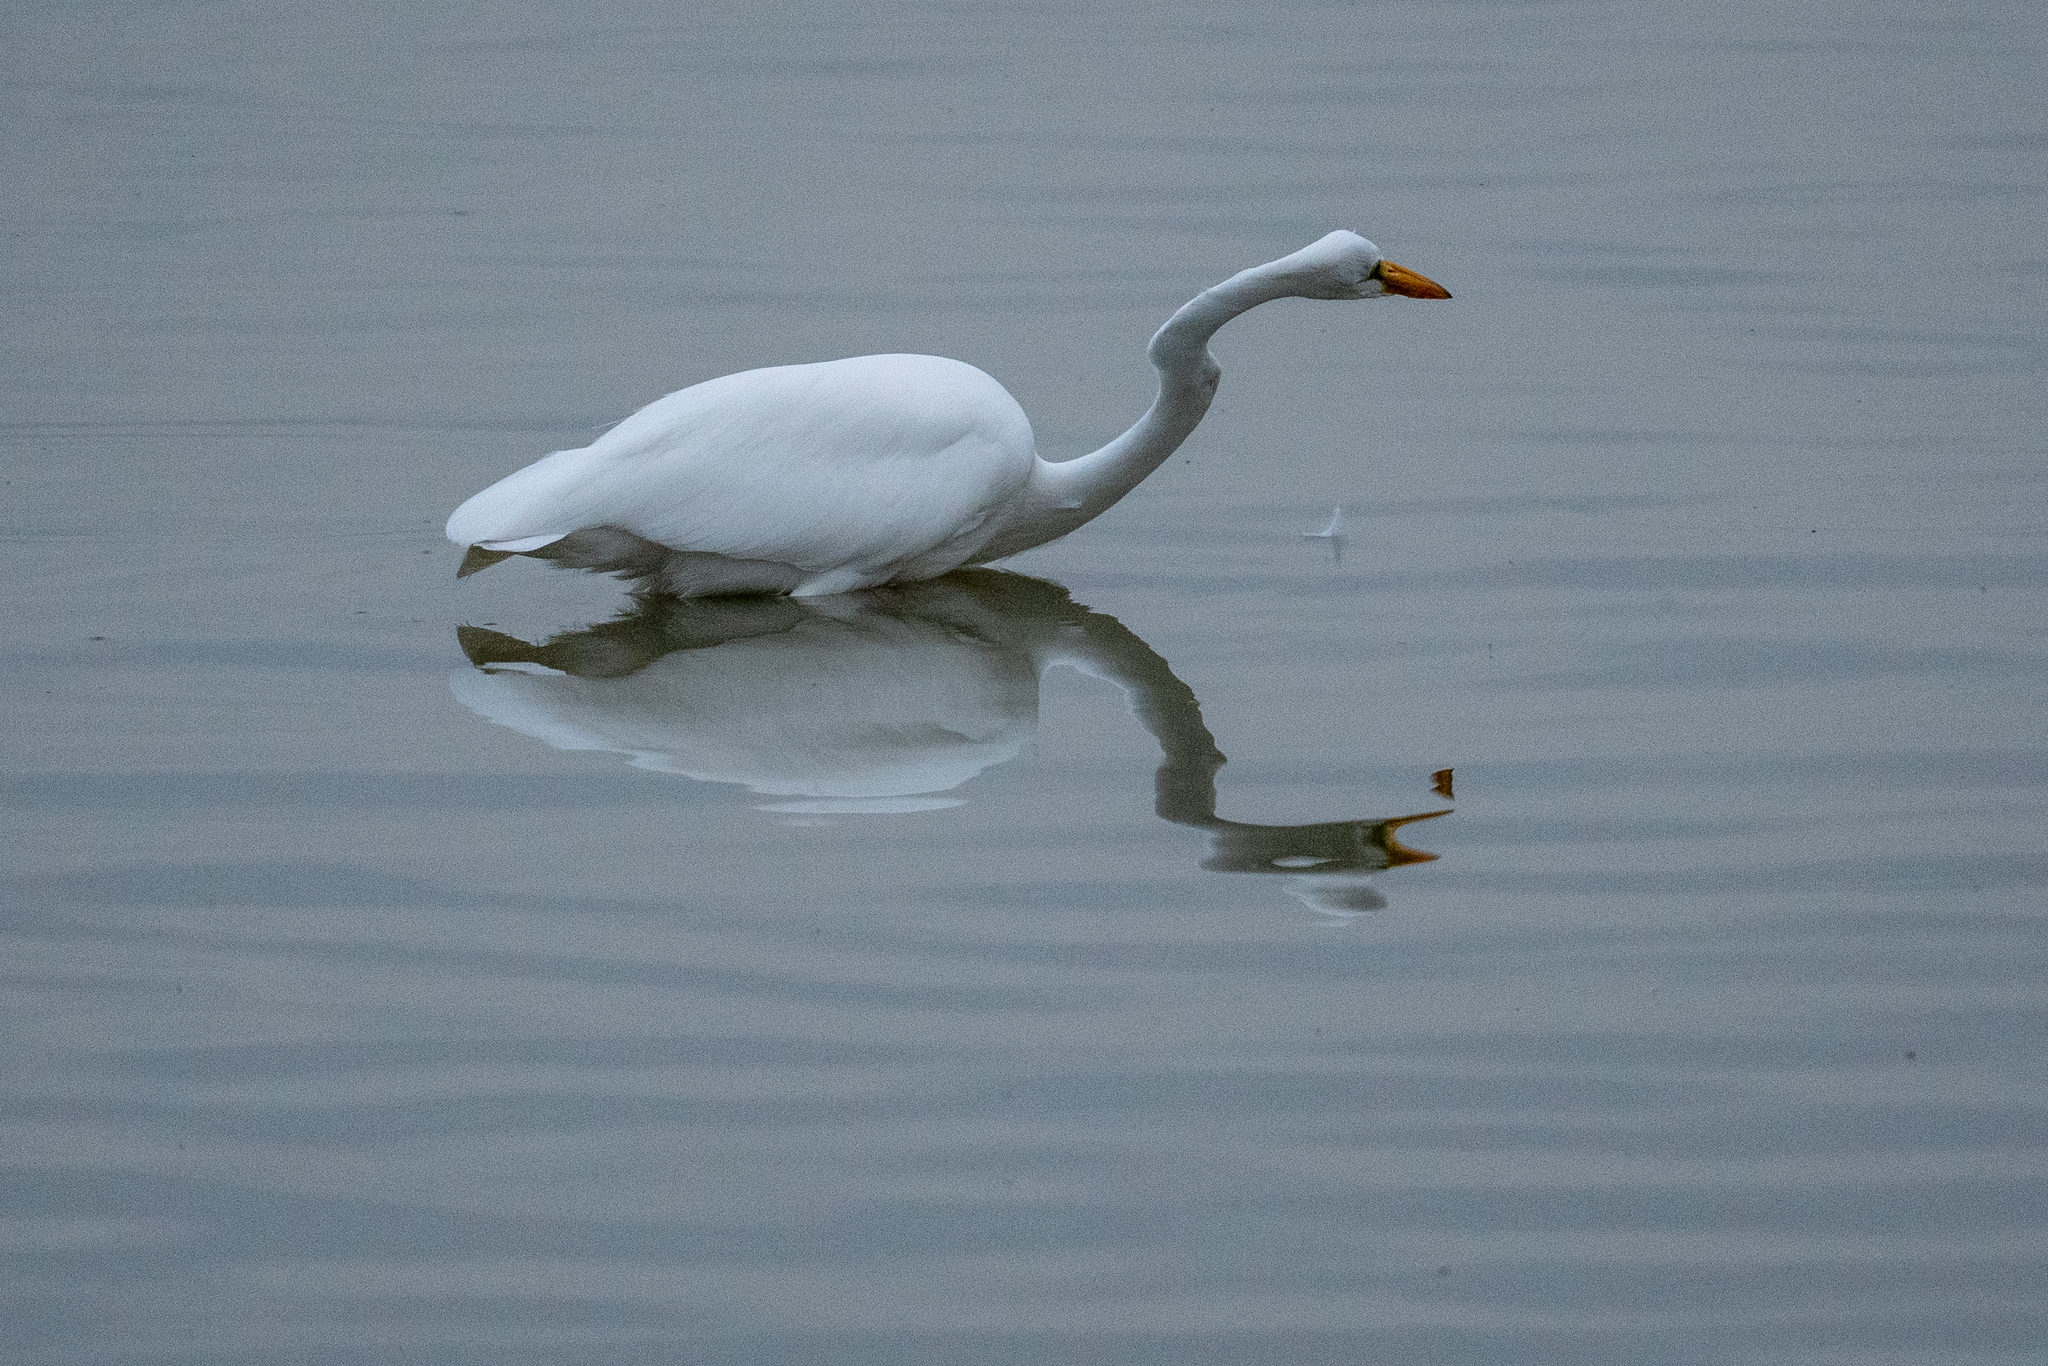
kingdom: Animalia
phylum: Chordata
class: Aves
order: Pelecaniformes
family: Ardeidae
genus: Ardea
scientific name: Ardea alba
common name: Great egret
